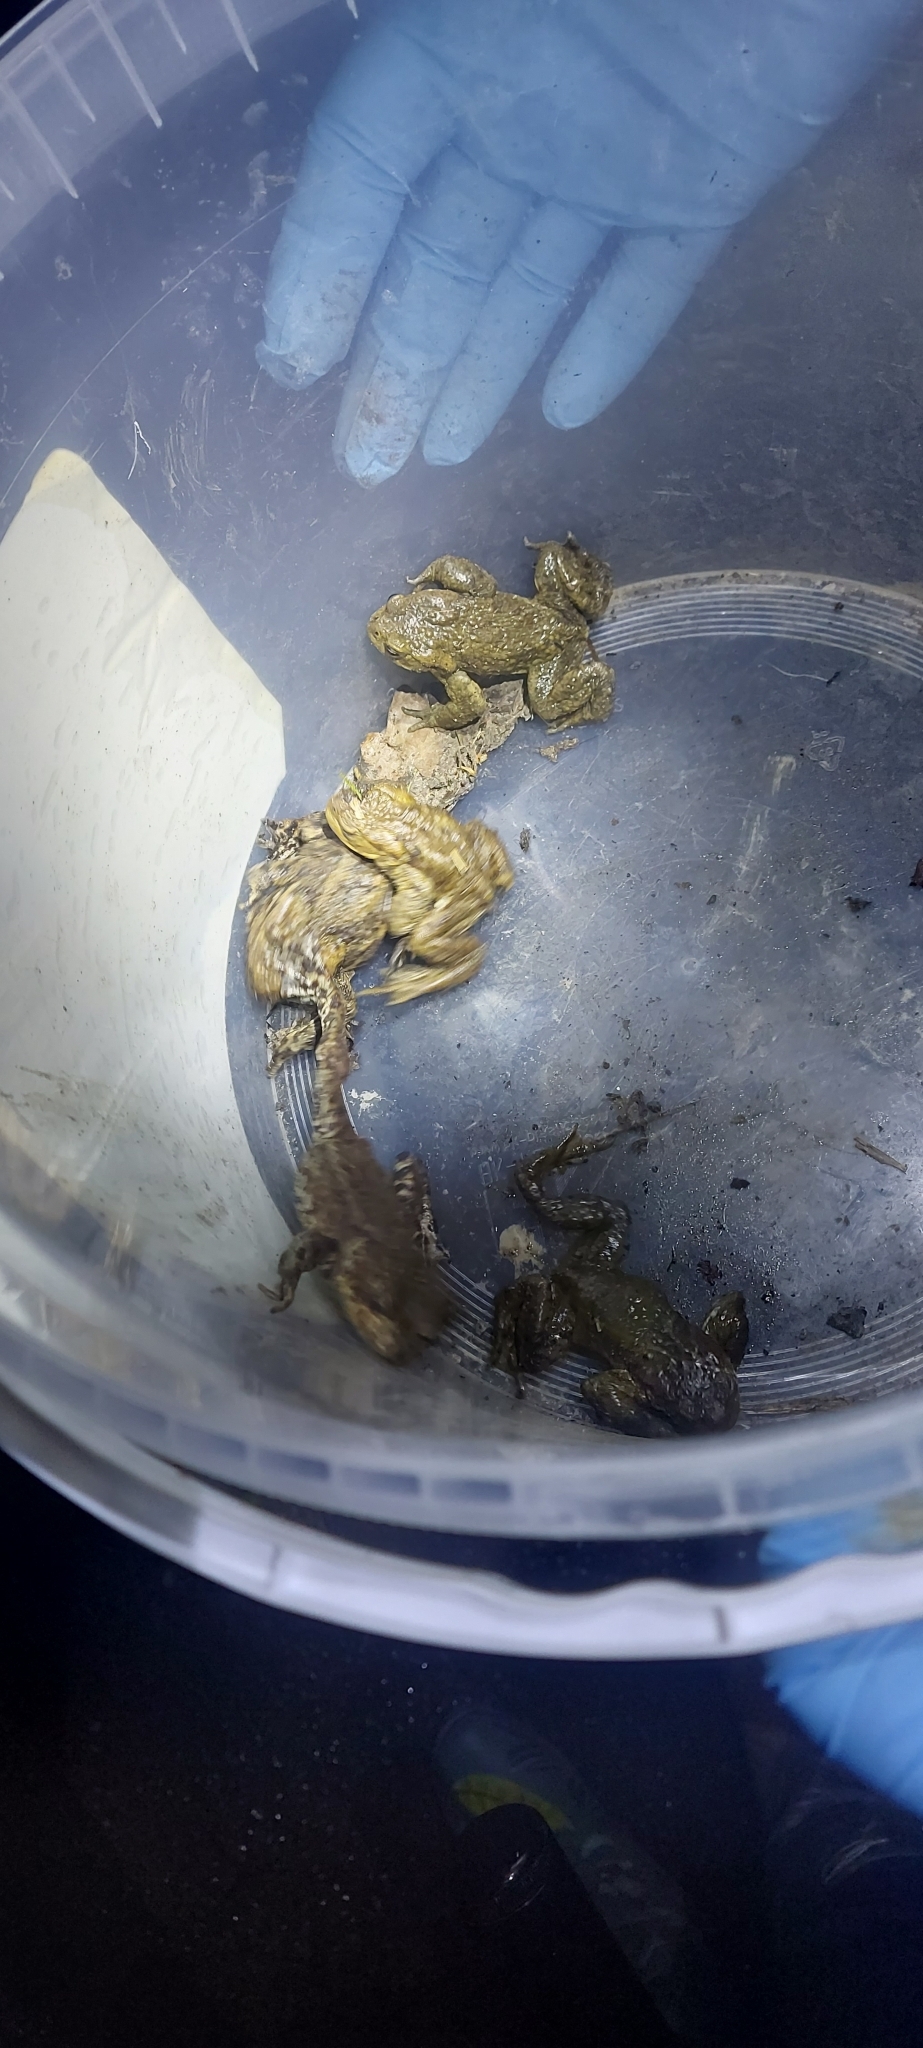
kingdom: Animalia
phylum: Chordata
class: Amphibia
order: Anura
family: Bufonidae
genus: Bufo
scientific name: Bufo bufo
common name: Common toad
